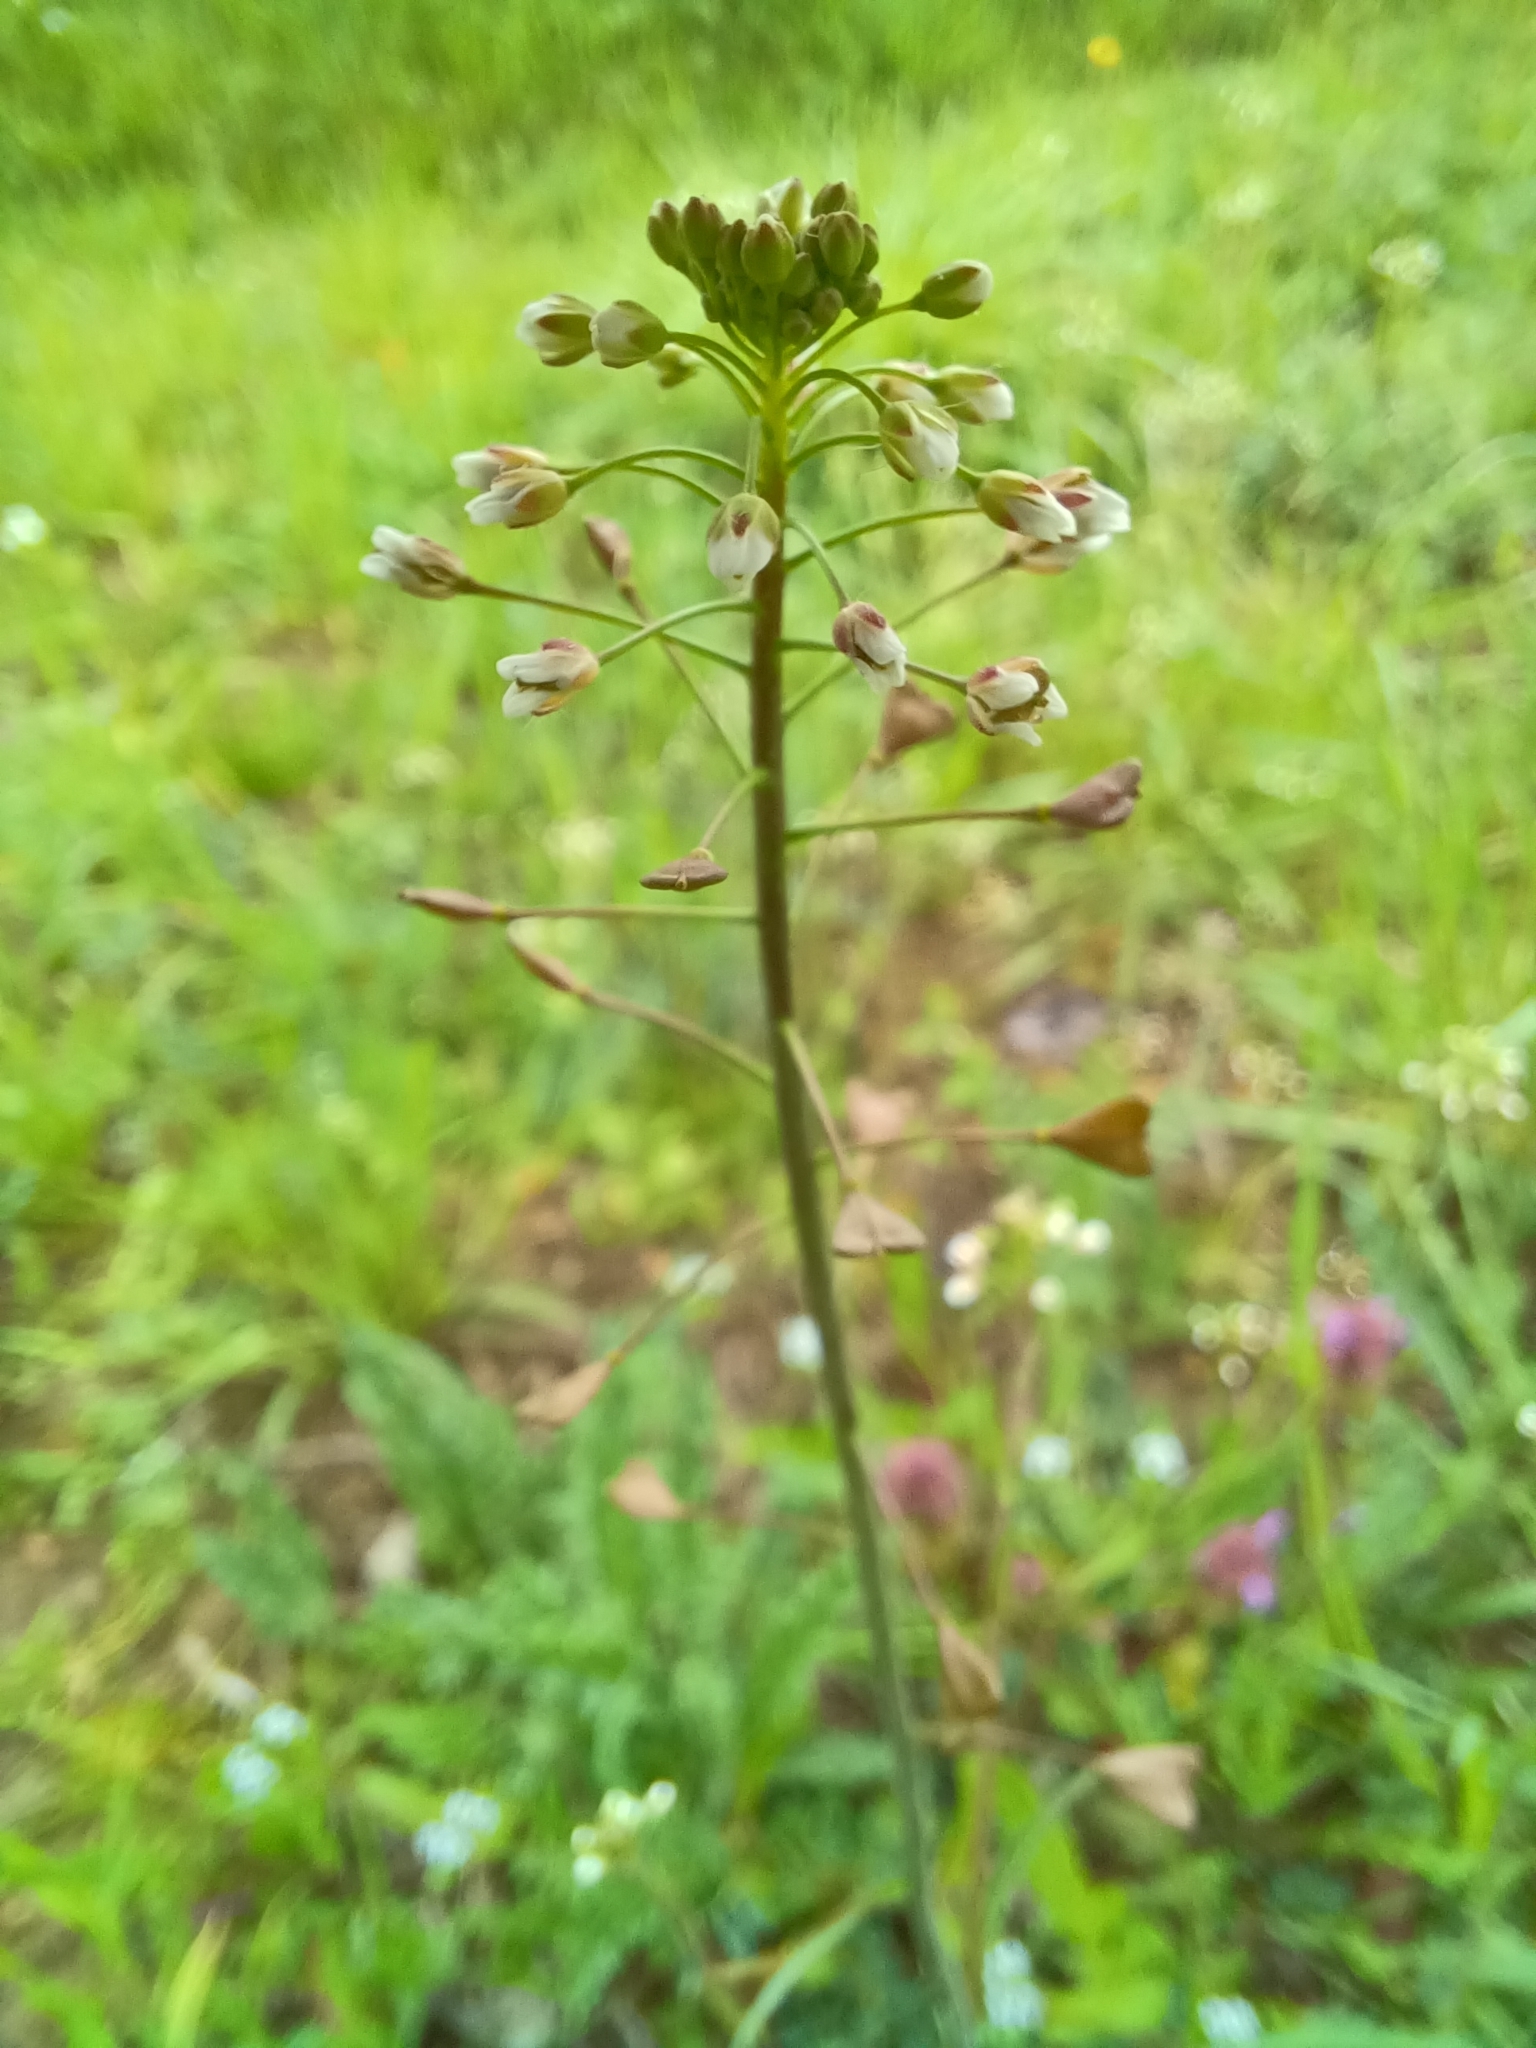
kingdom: Plantae
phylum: Tracheophyta
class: Magnoliopsida
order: Brassicales
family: Brassicaceae
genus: Capsella
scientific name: Capsella bursa-pastoris
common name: Shepherd's purse
